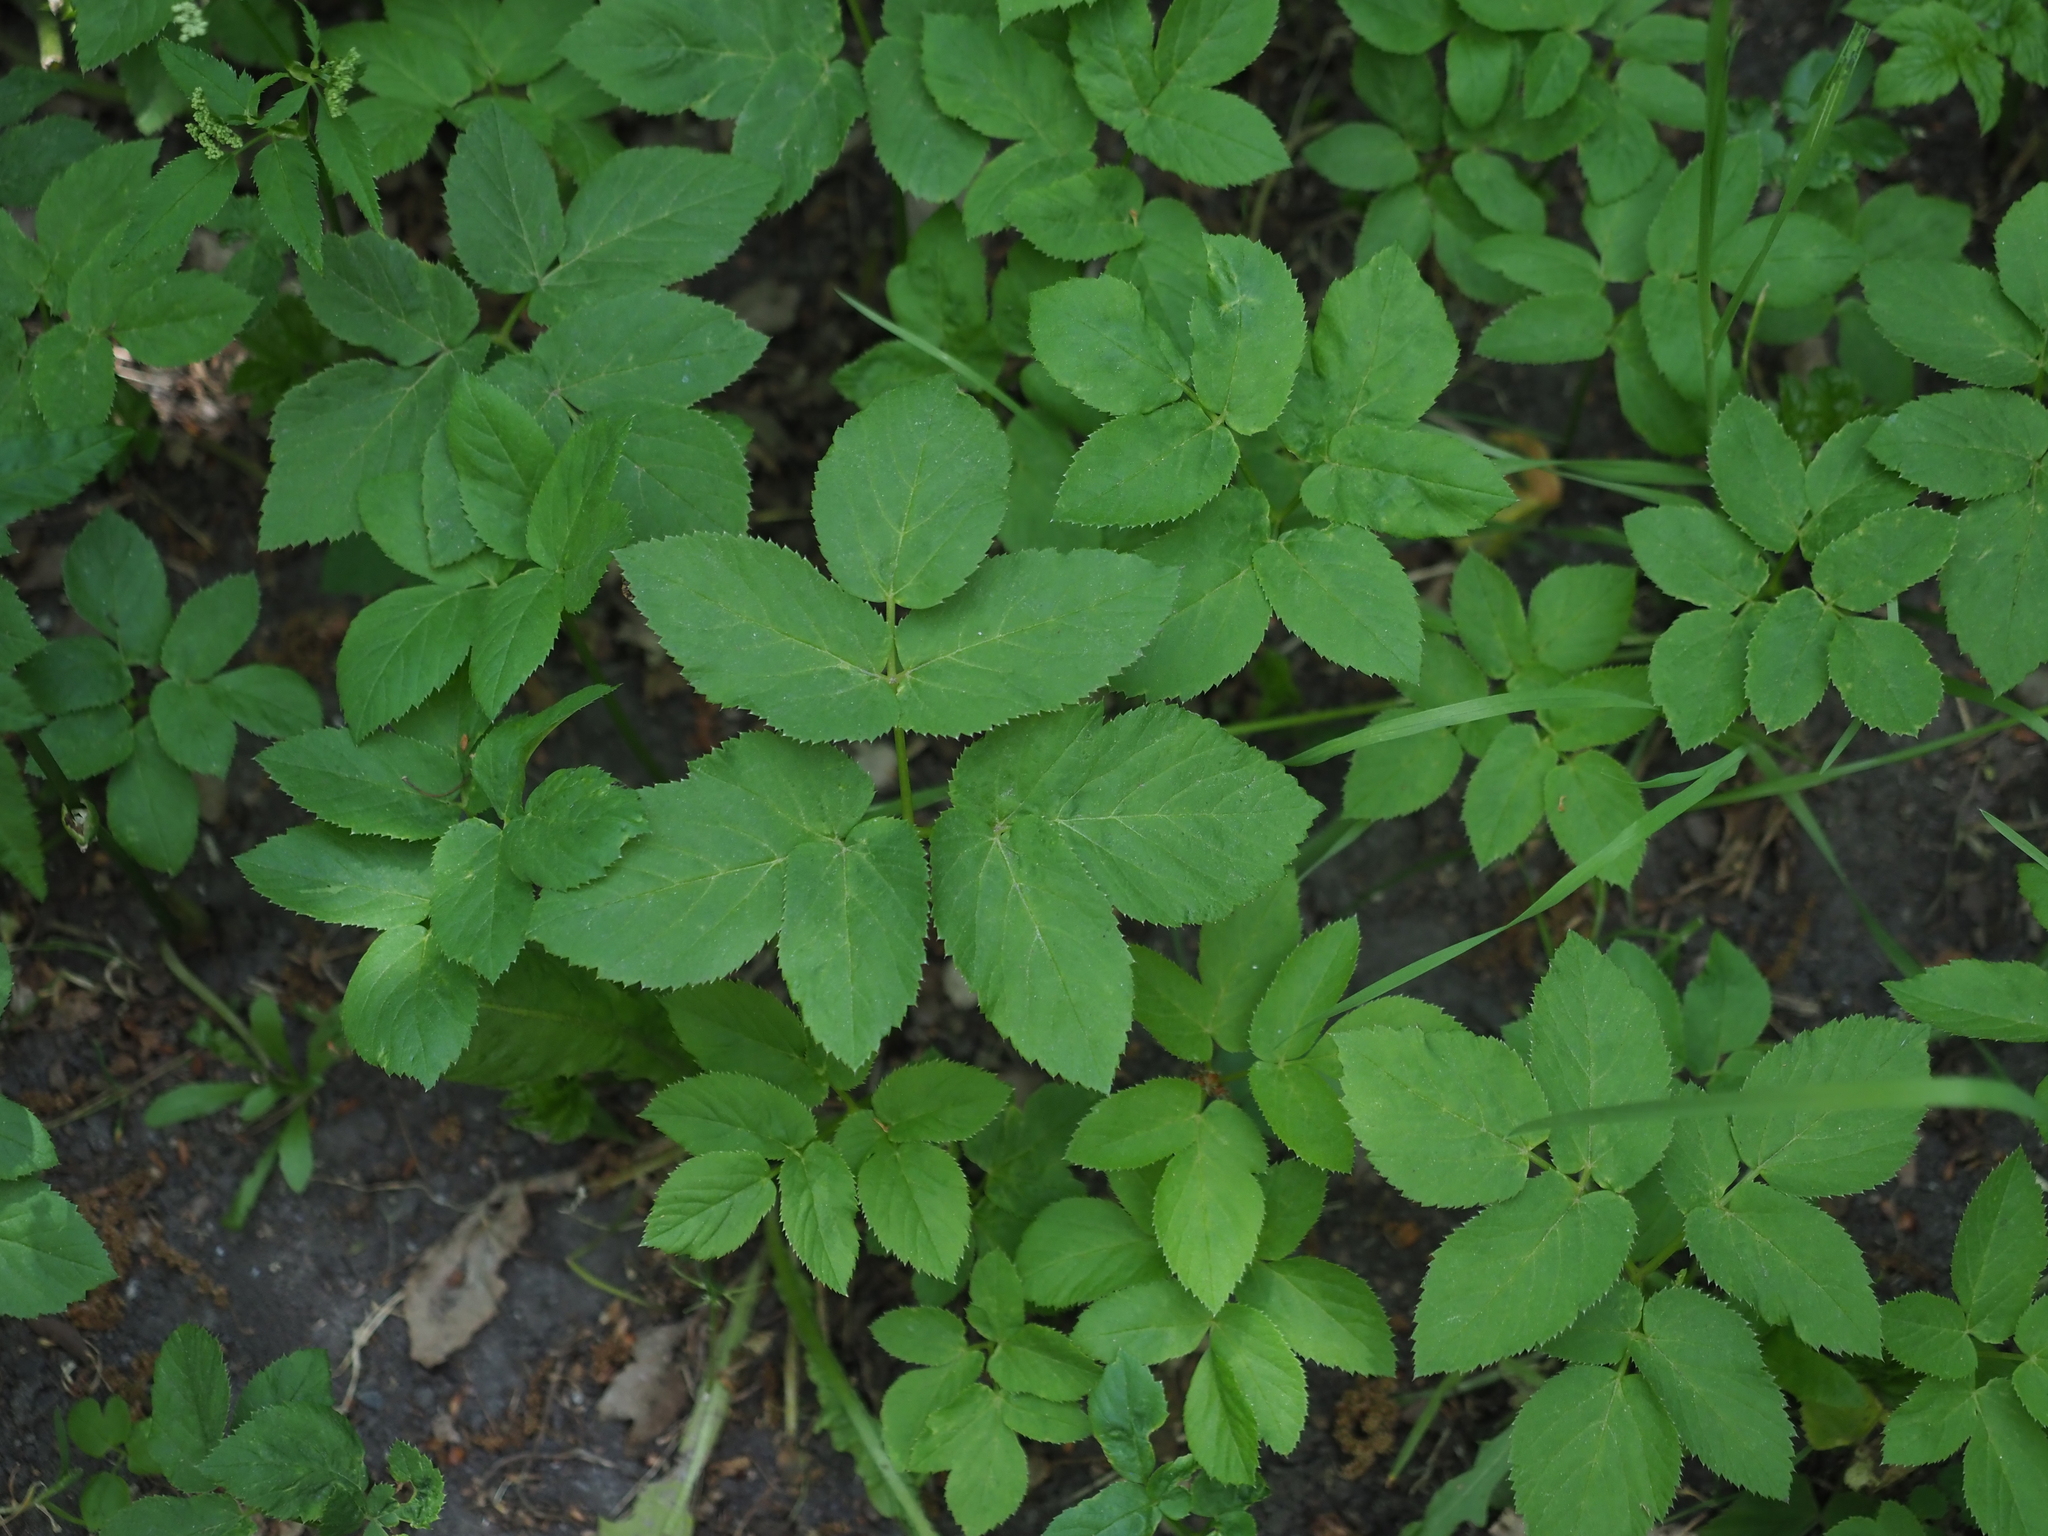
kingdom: Plantae
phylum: Tracheophyta
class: Magnoliopsida
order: Apiales
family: Apiaceae
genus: Aegopodium
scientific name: Aegopodium podagraria
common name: Ground-elder
